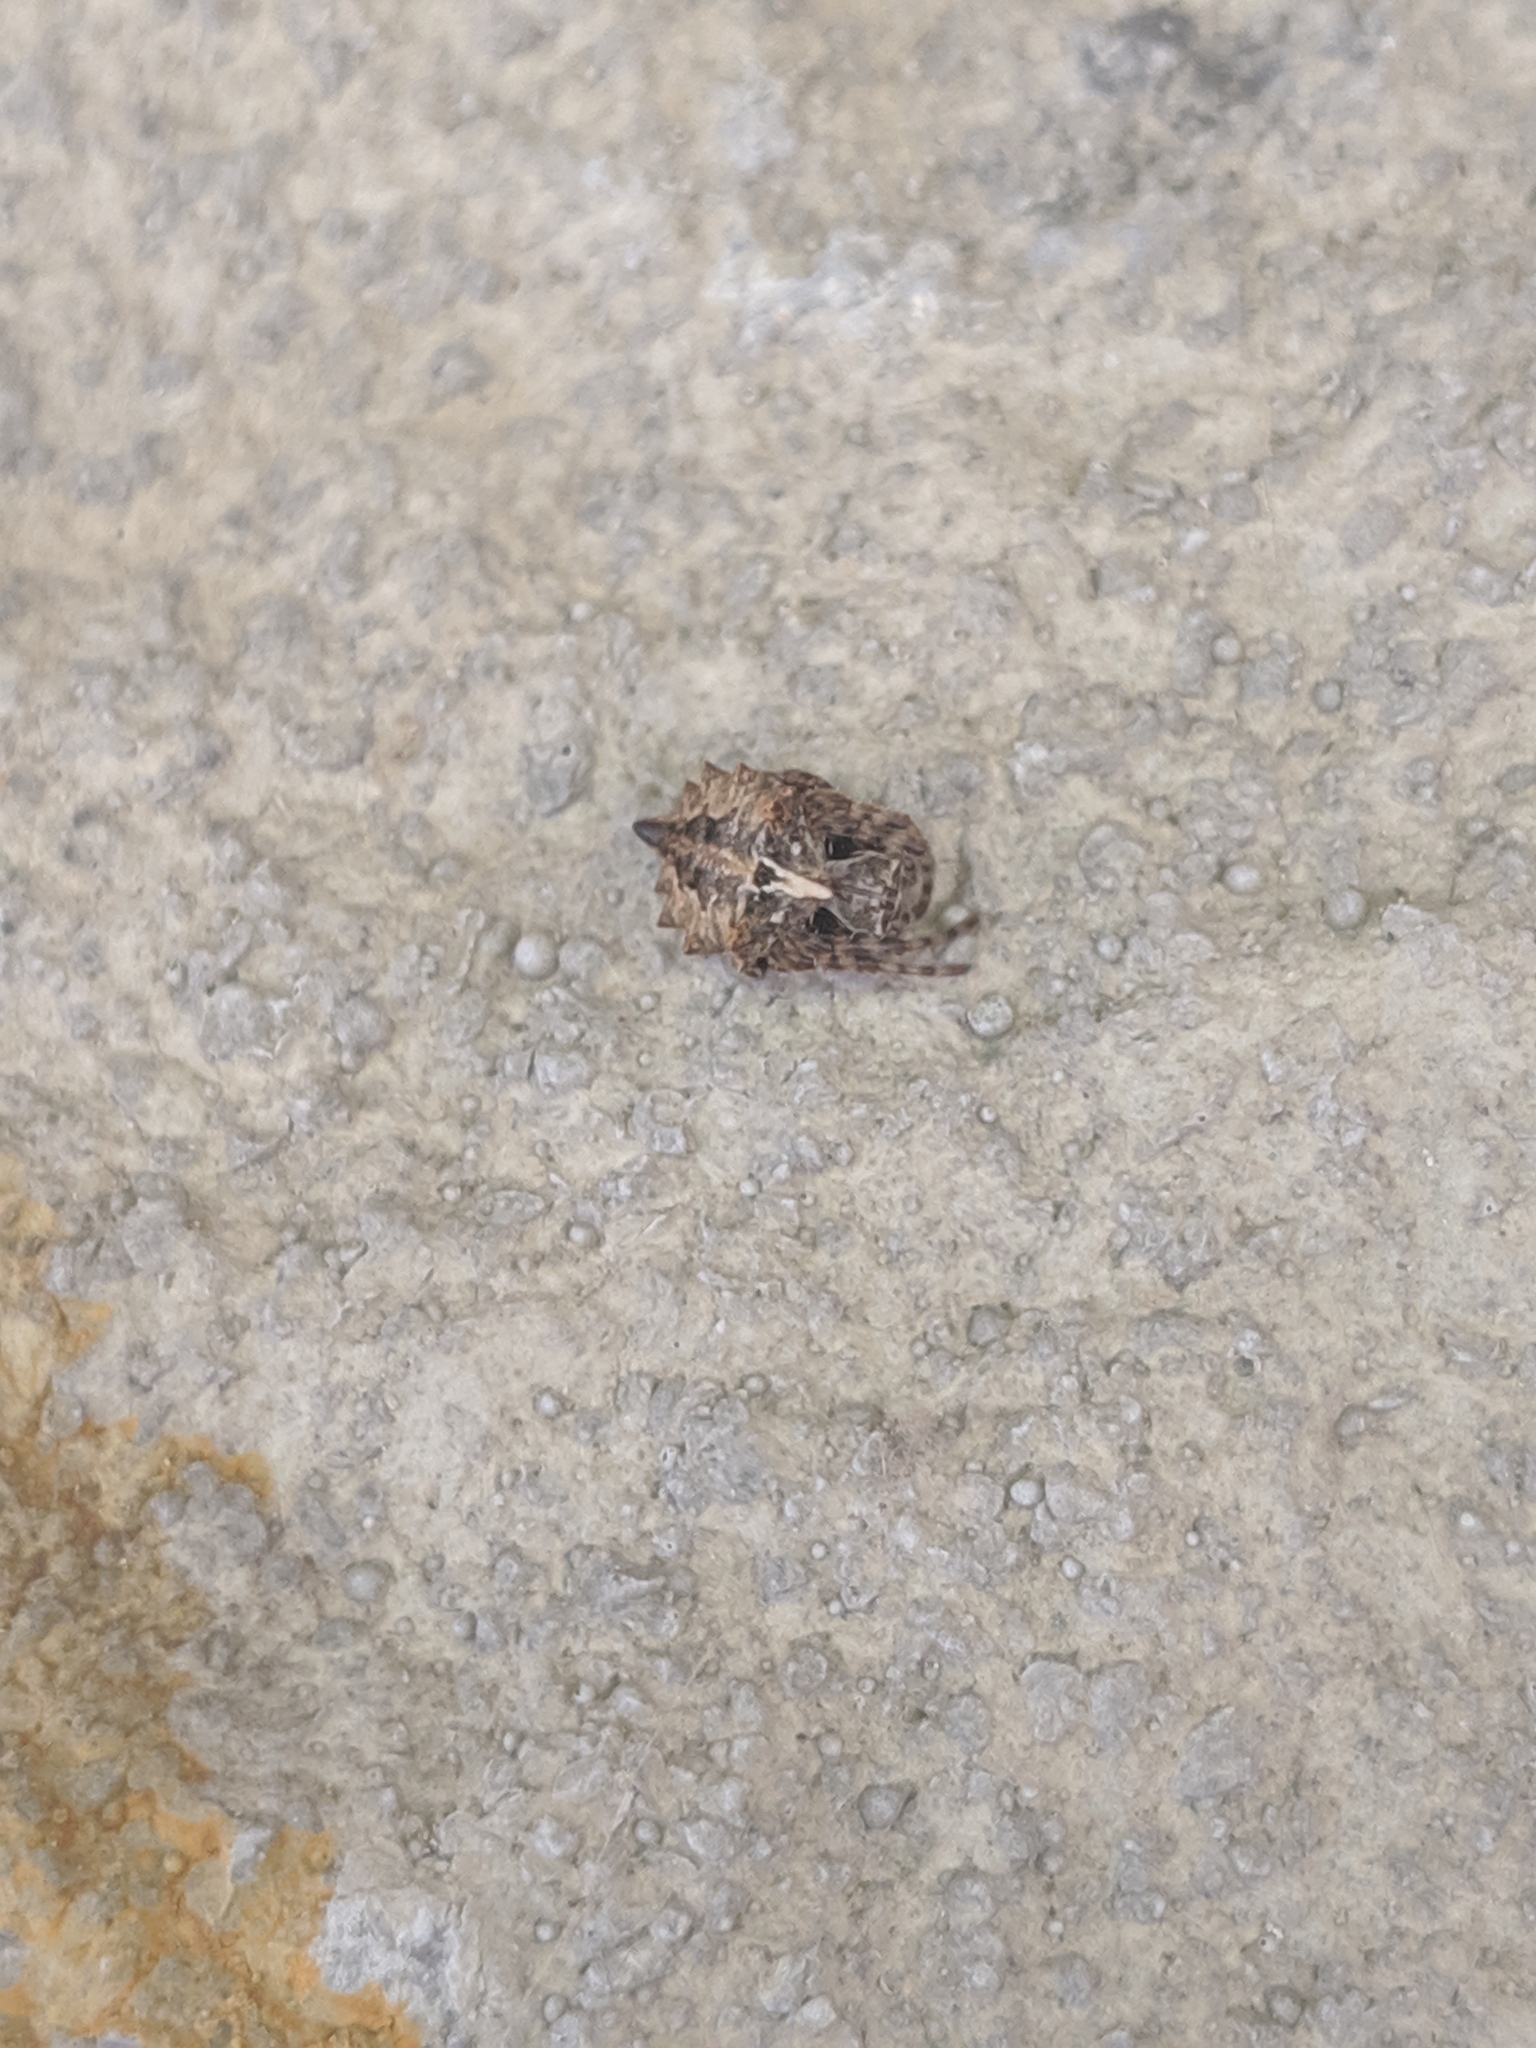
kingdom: Animalia
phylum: Arthropoda
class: Arachnida
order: Araneae
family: Araneidae
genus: Acanthepeira
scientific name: Acanthepeira stellata
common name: Starbellied orbweaver
